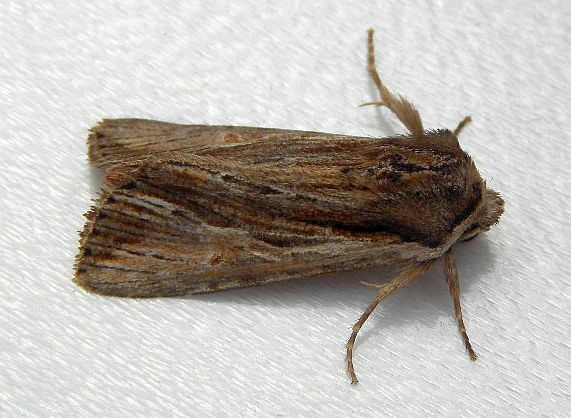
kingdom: Animalia
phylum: Arthropoda
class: Insecta
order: Lepidoptera
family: Noctuidae
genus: Achatia
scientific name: Achatia evicta
